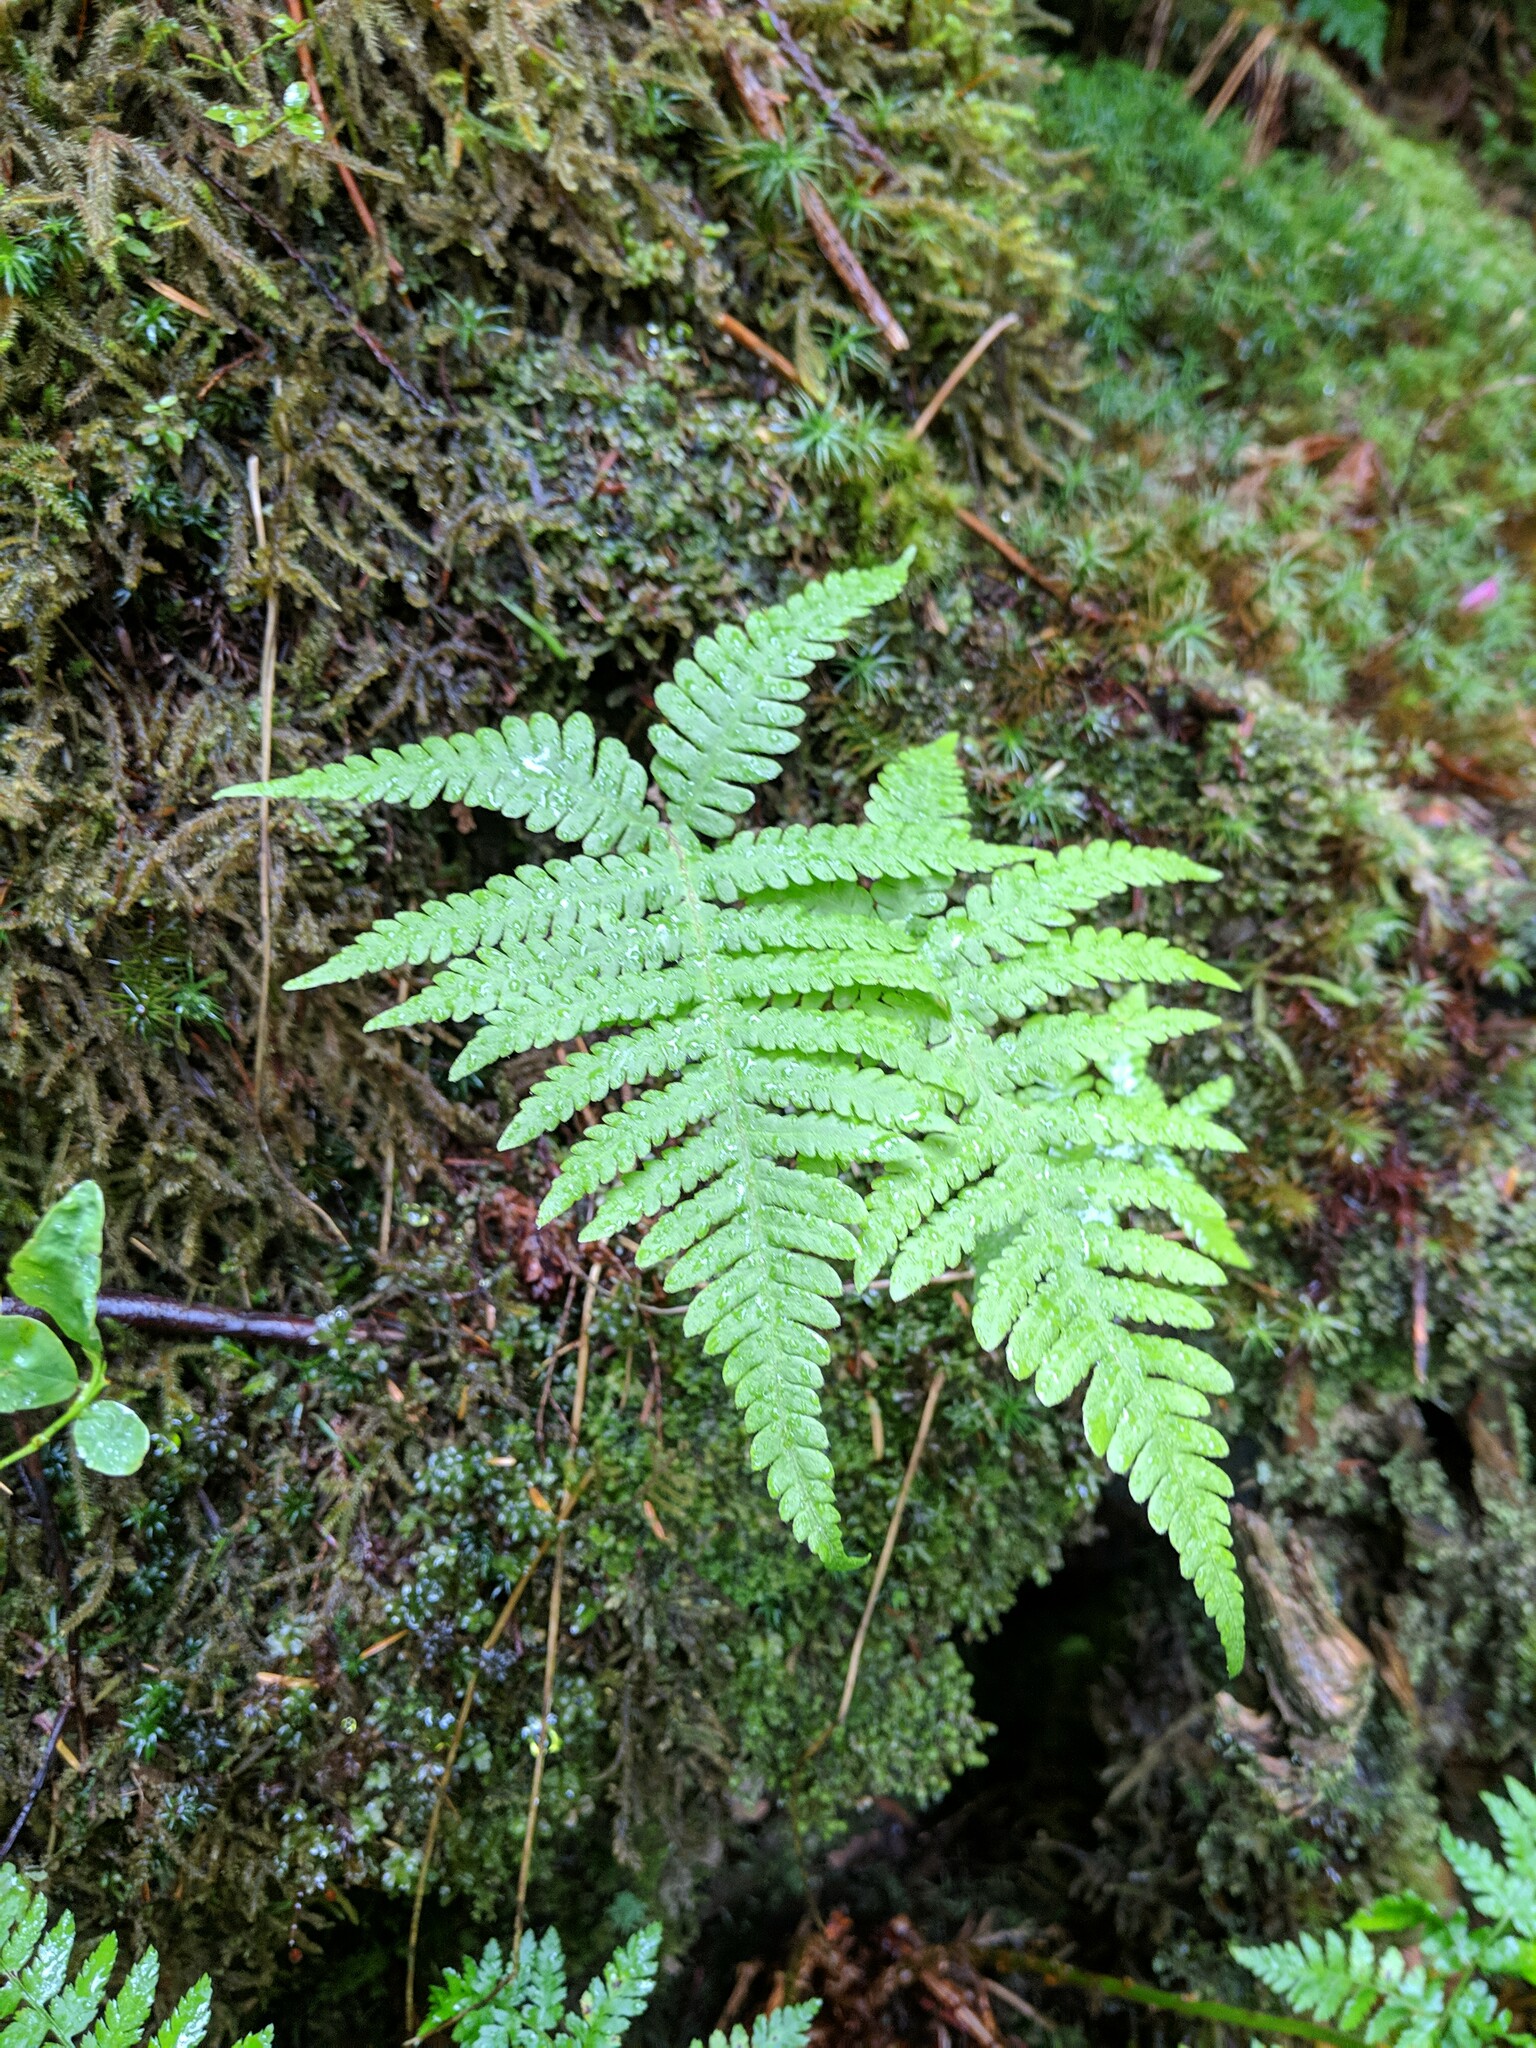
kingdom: Plantae
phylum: Tracheophyta
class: Polypodiopsida
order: Polypodiales
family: Thelypteridaceae
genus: Phegopteris
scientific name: Phegopteris connectilis
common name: Beech fern
